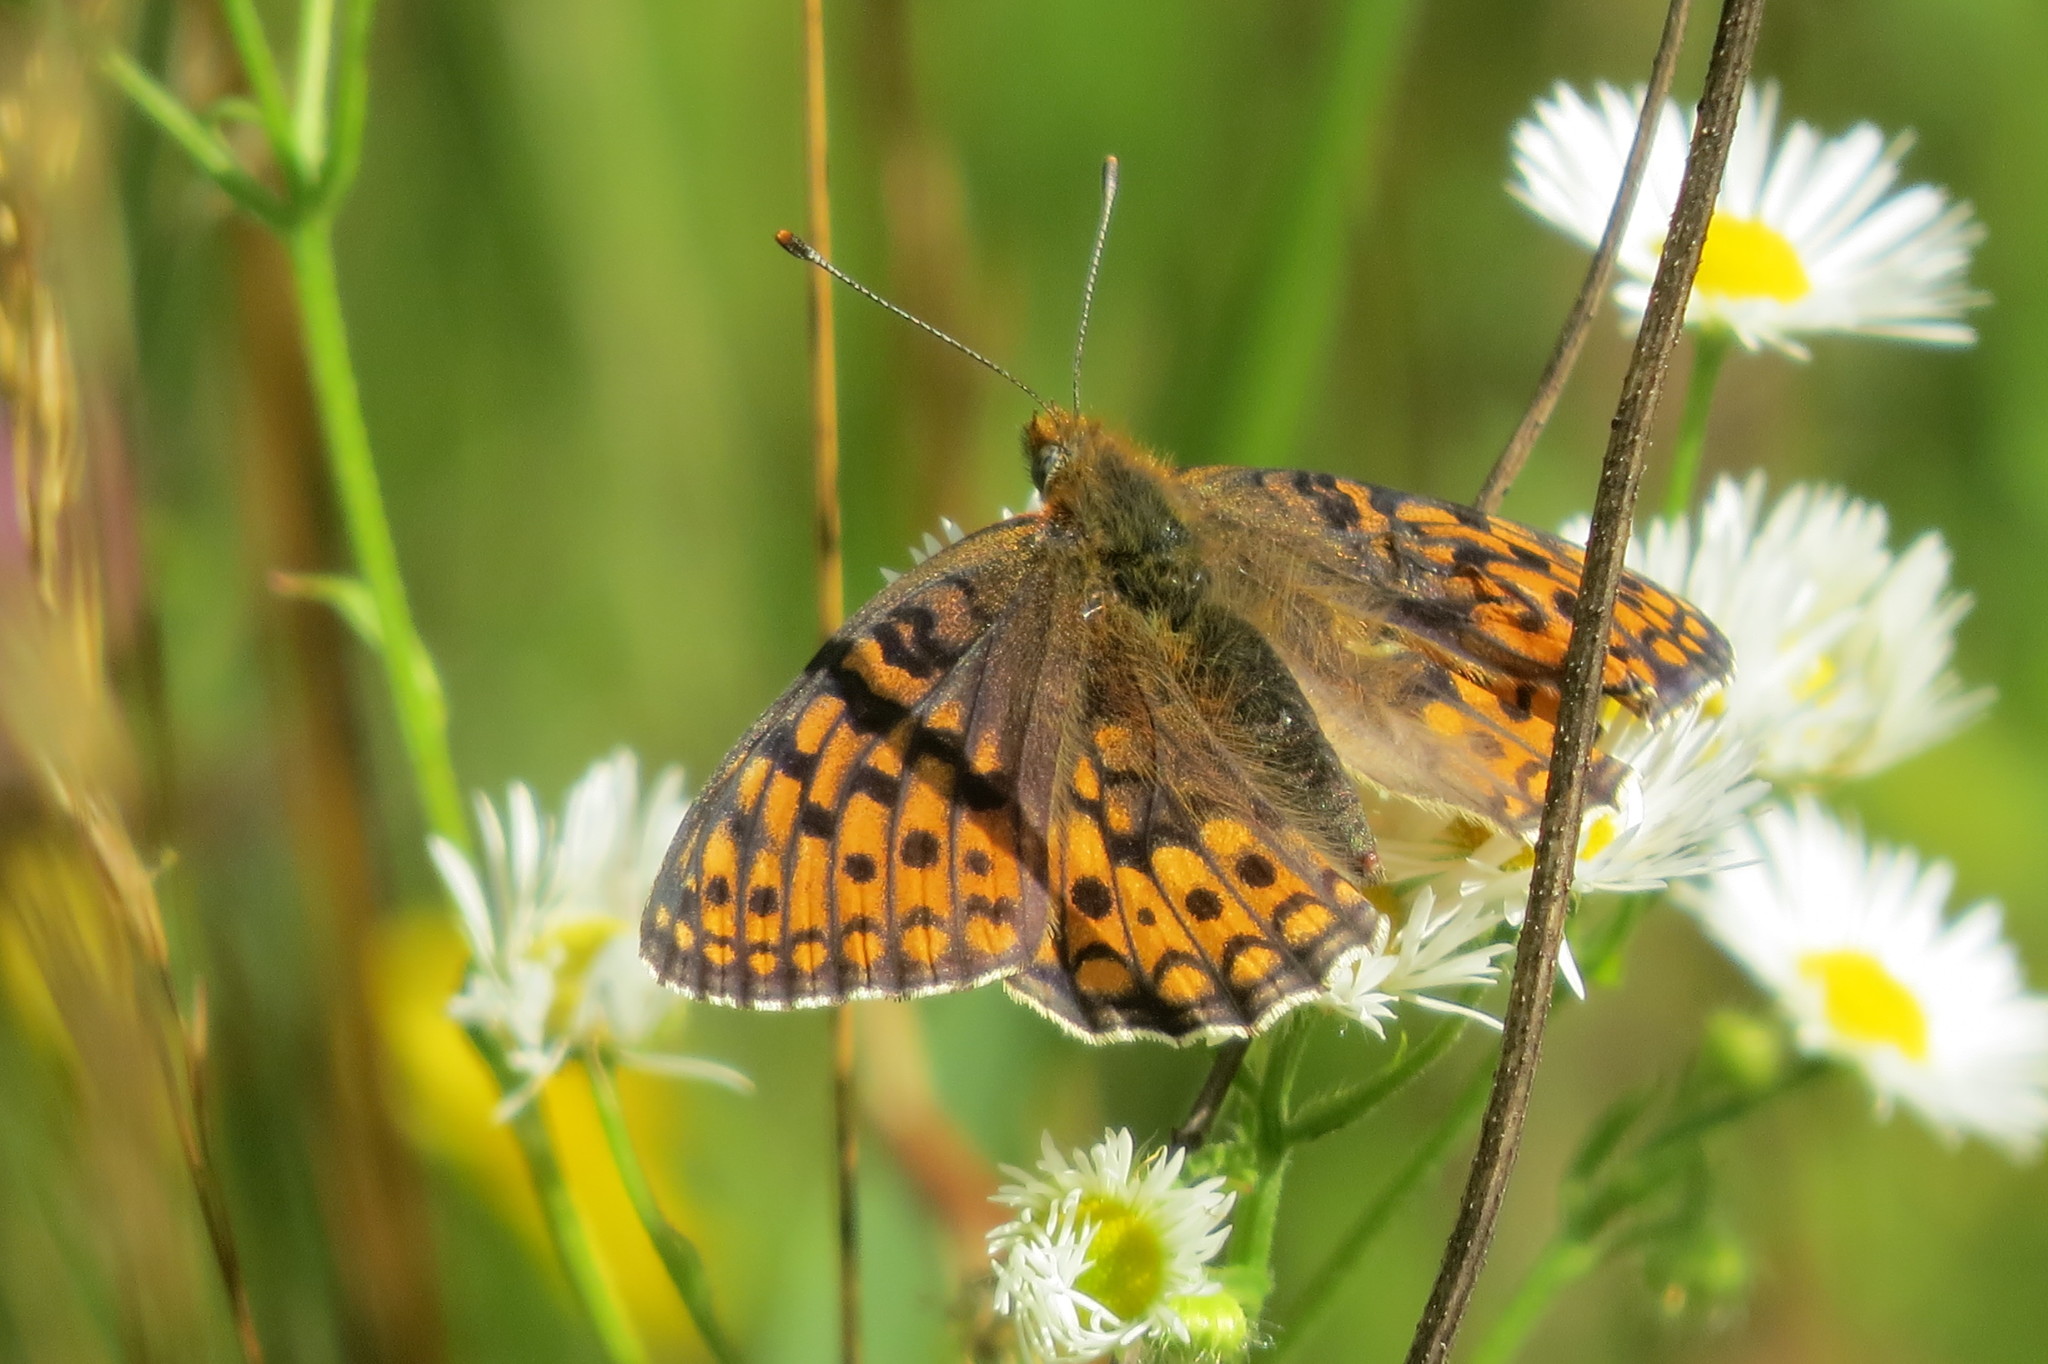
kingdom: Animalia
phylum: Arthropoda
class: Insecta
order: Lepidoptera
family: Nymphalidae
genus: Fabriciana
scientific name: Fabriciana niobe
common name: Niobe fritillary
